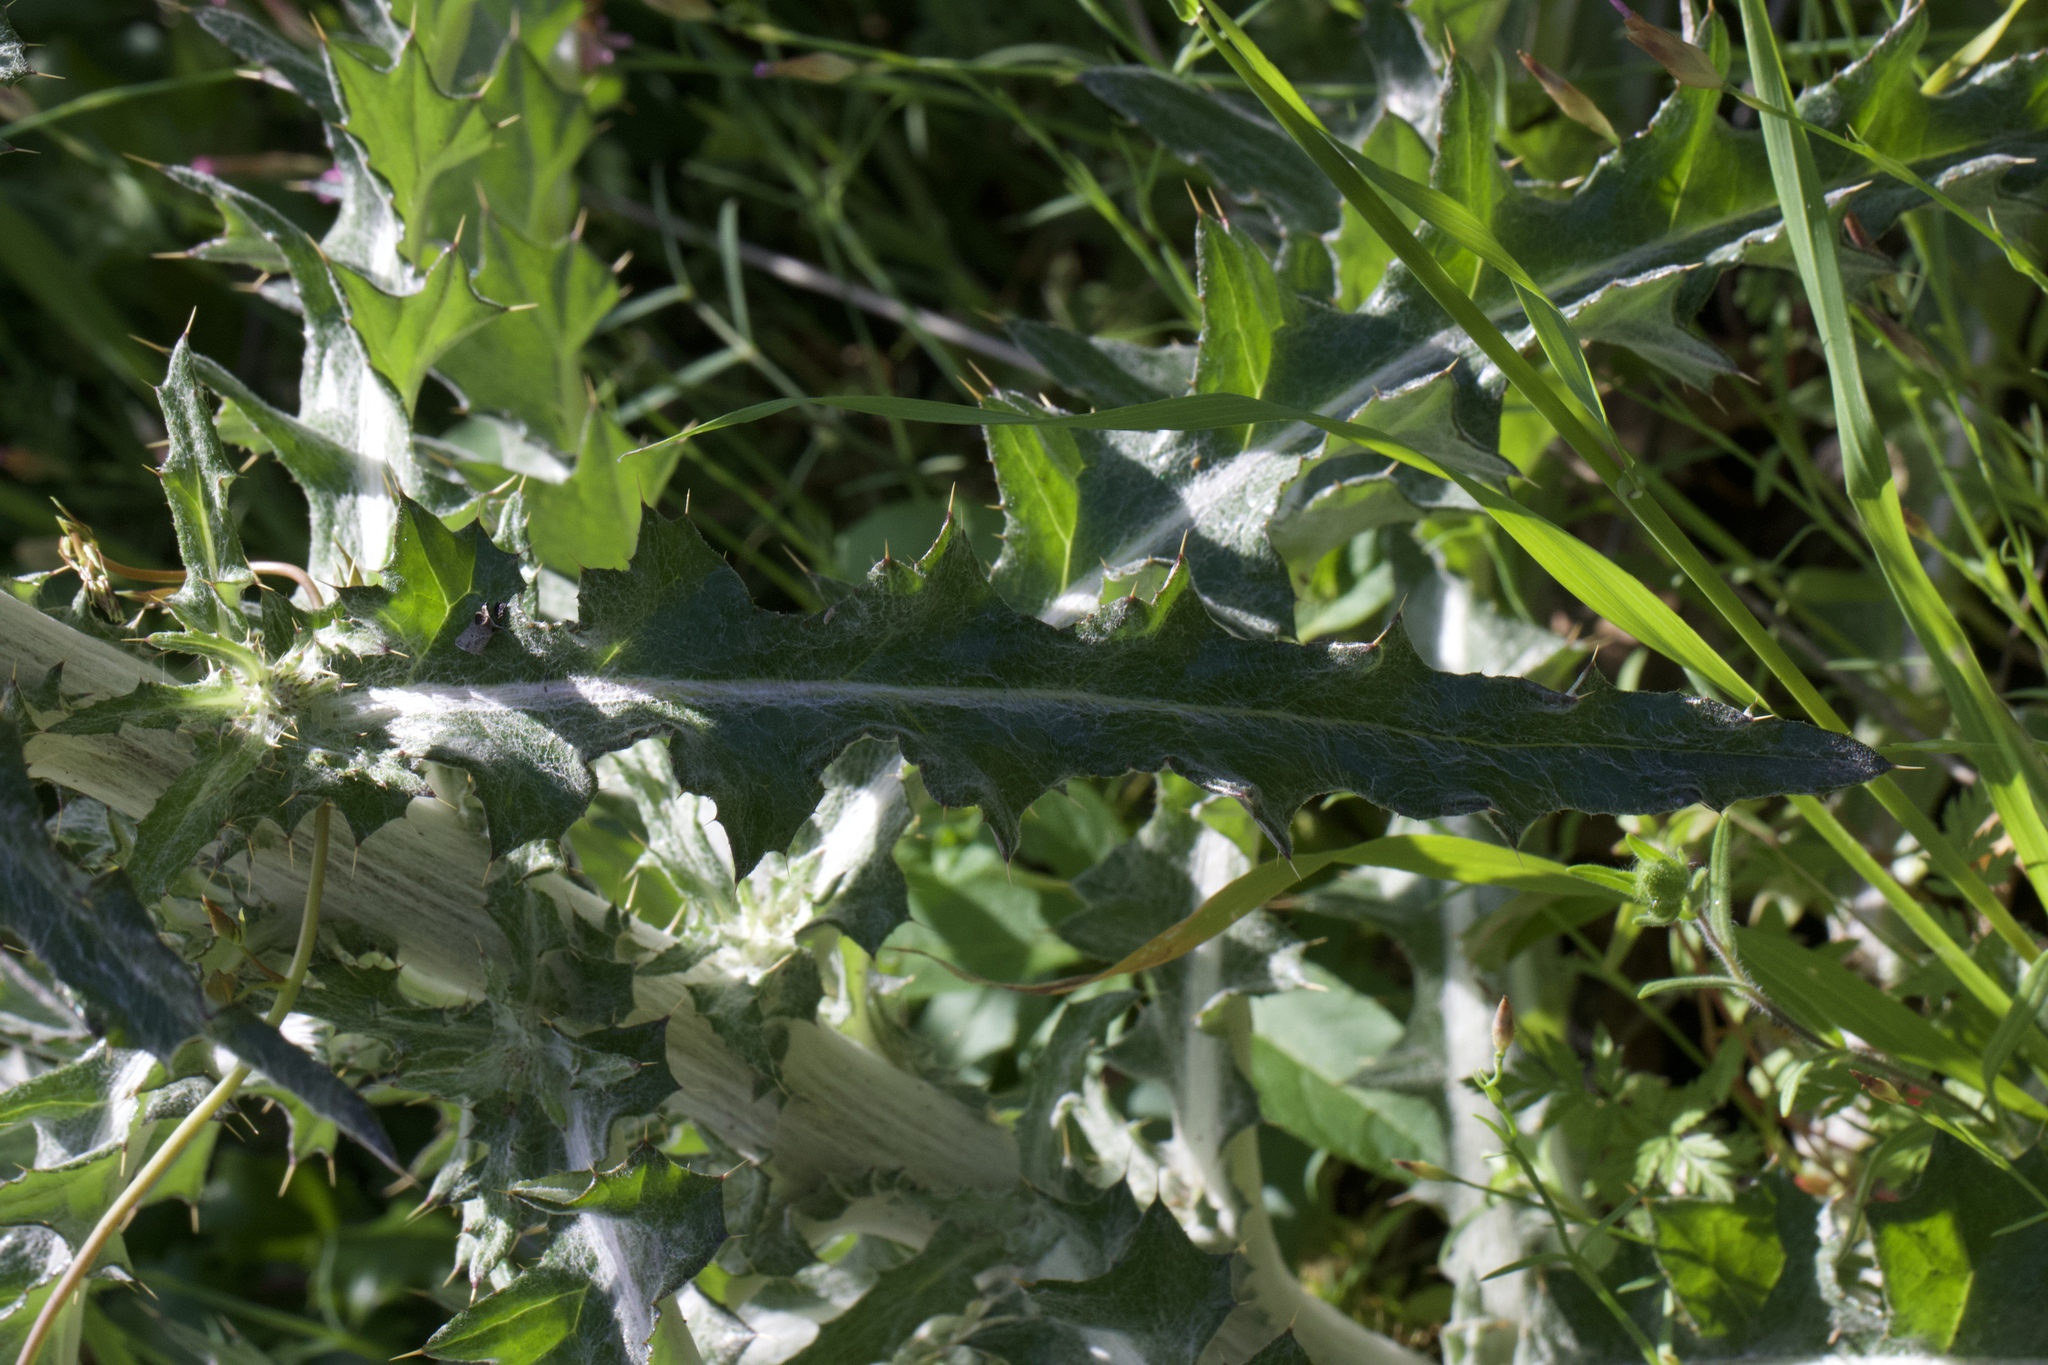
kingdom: Plantae
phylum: Tracheophyta
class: Magnoliopsida
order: Asterales
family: Asteraceae
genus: Cirsium
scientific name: Cirsium occidentale
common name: Western thistle
